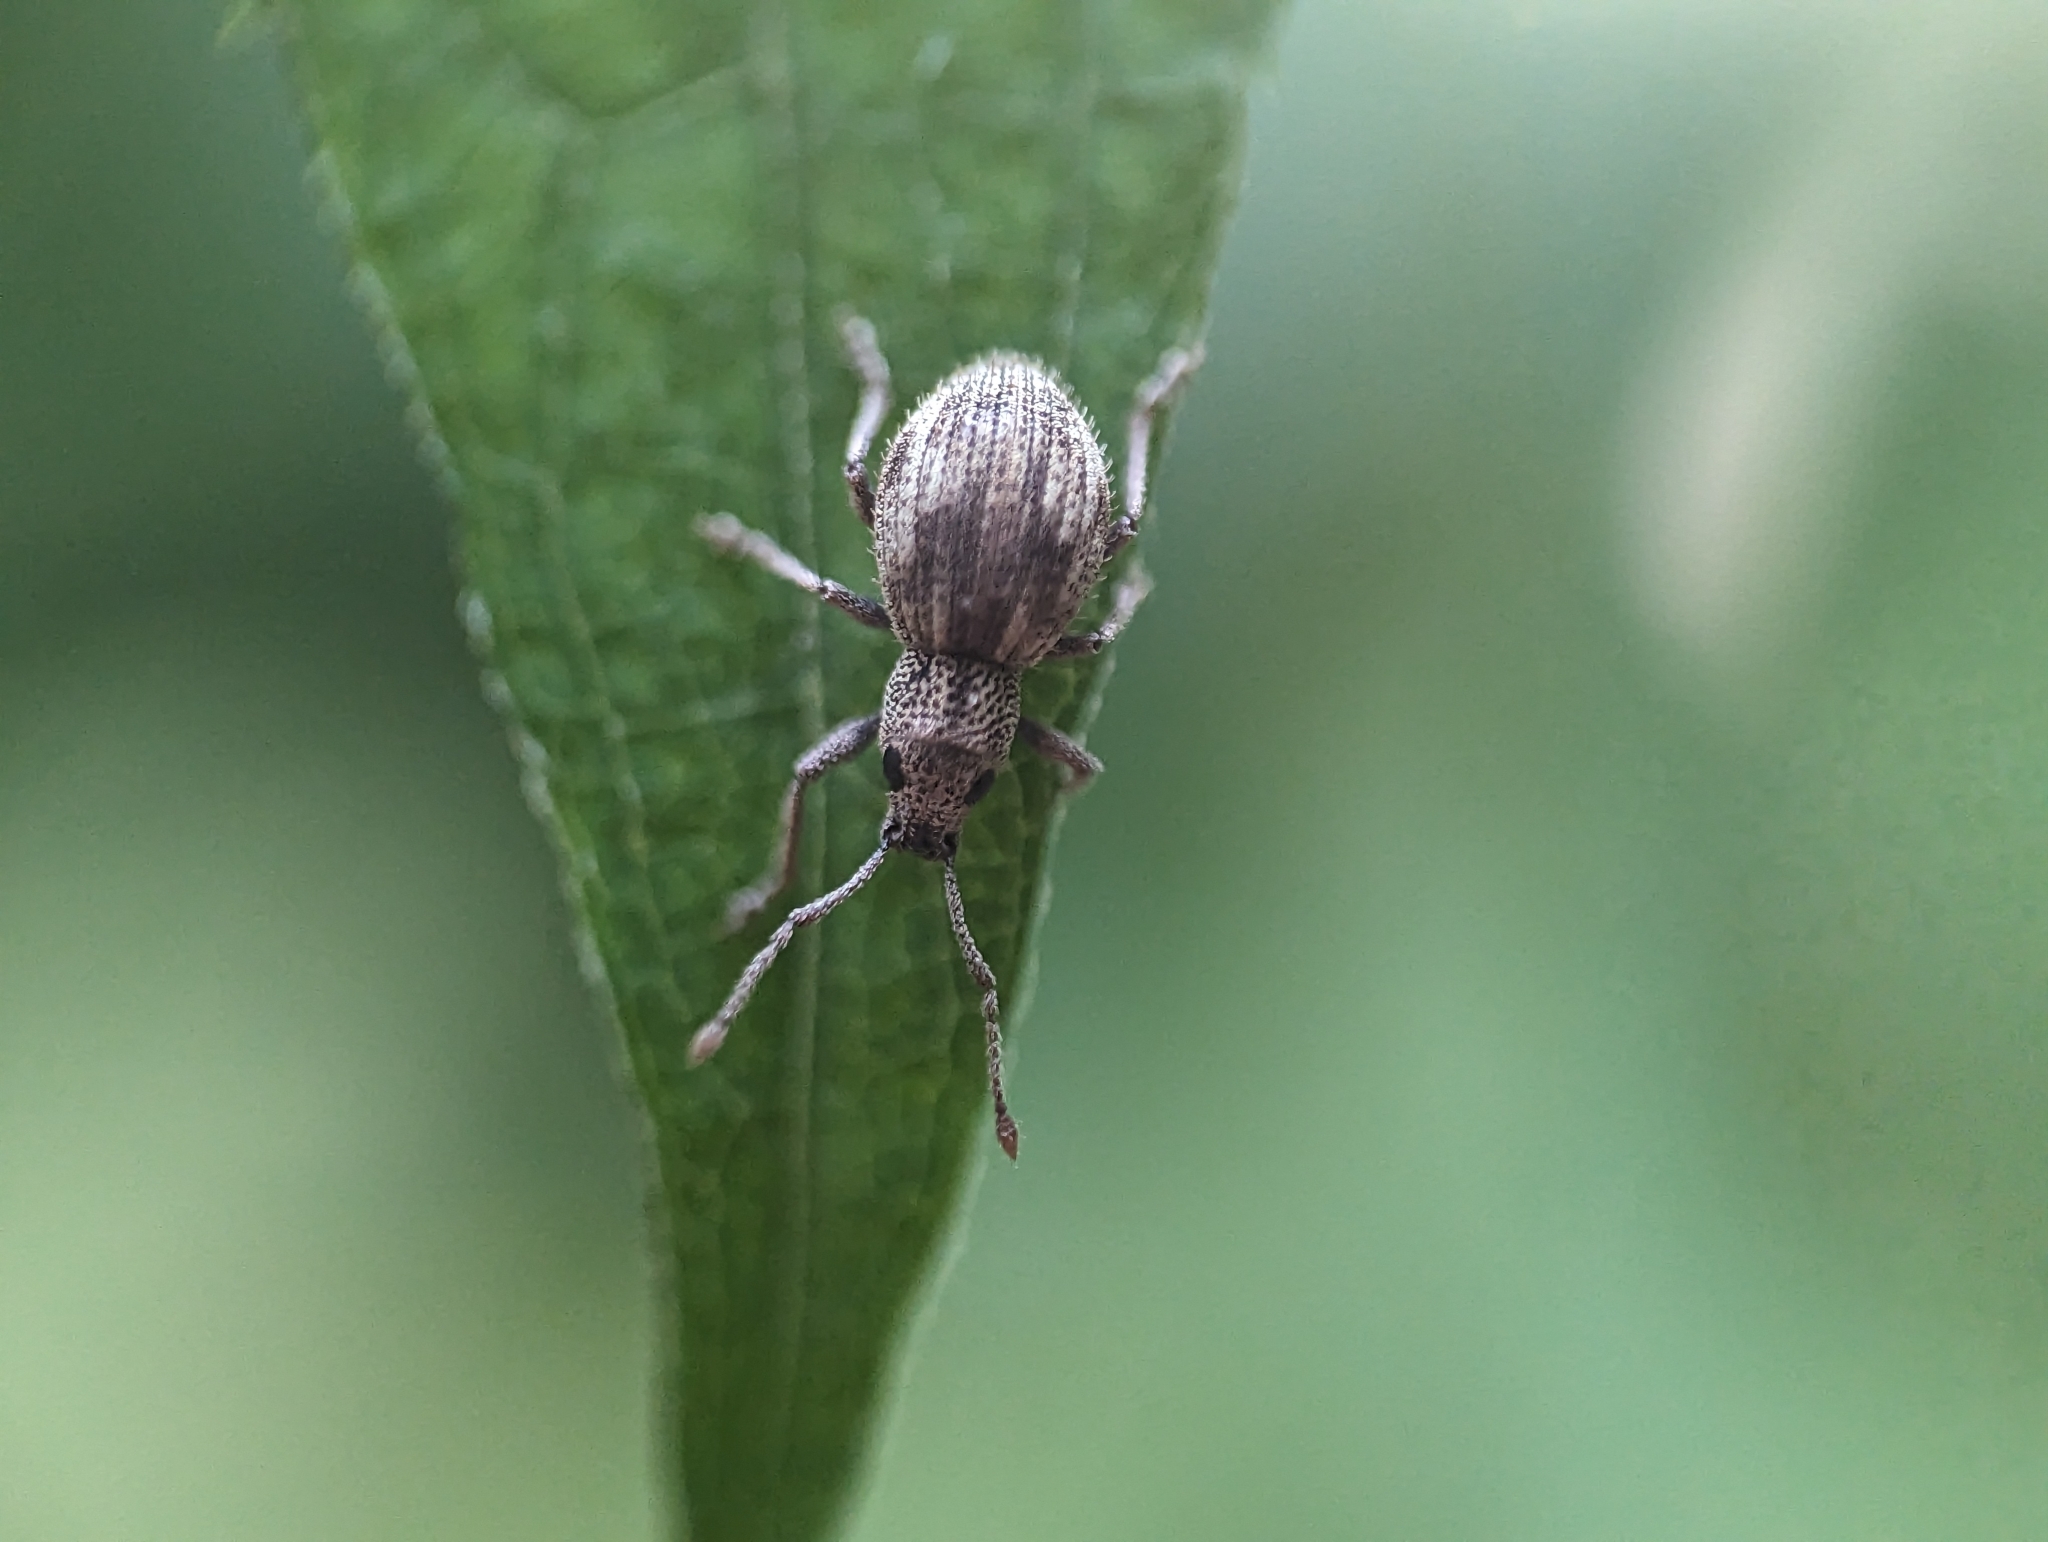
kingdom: Animalia
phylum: Arthropoda
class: Insecta
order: Coleoptera
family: Curculionidae
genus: Calomycterus
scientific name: Calomycterus setarius
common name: Weevil
